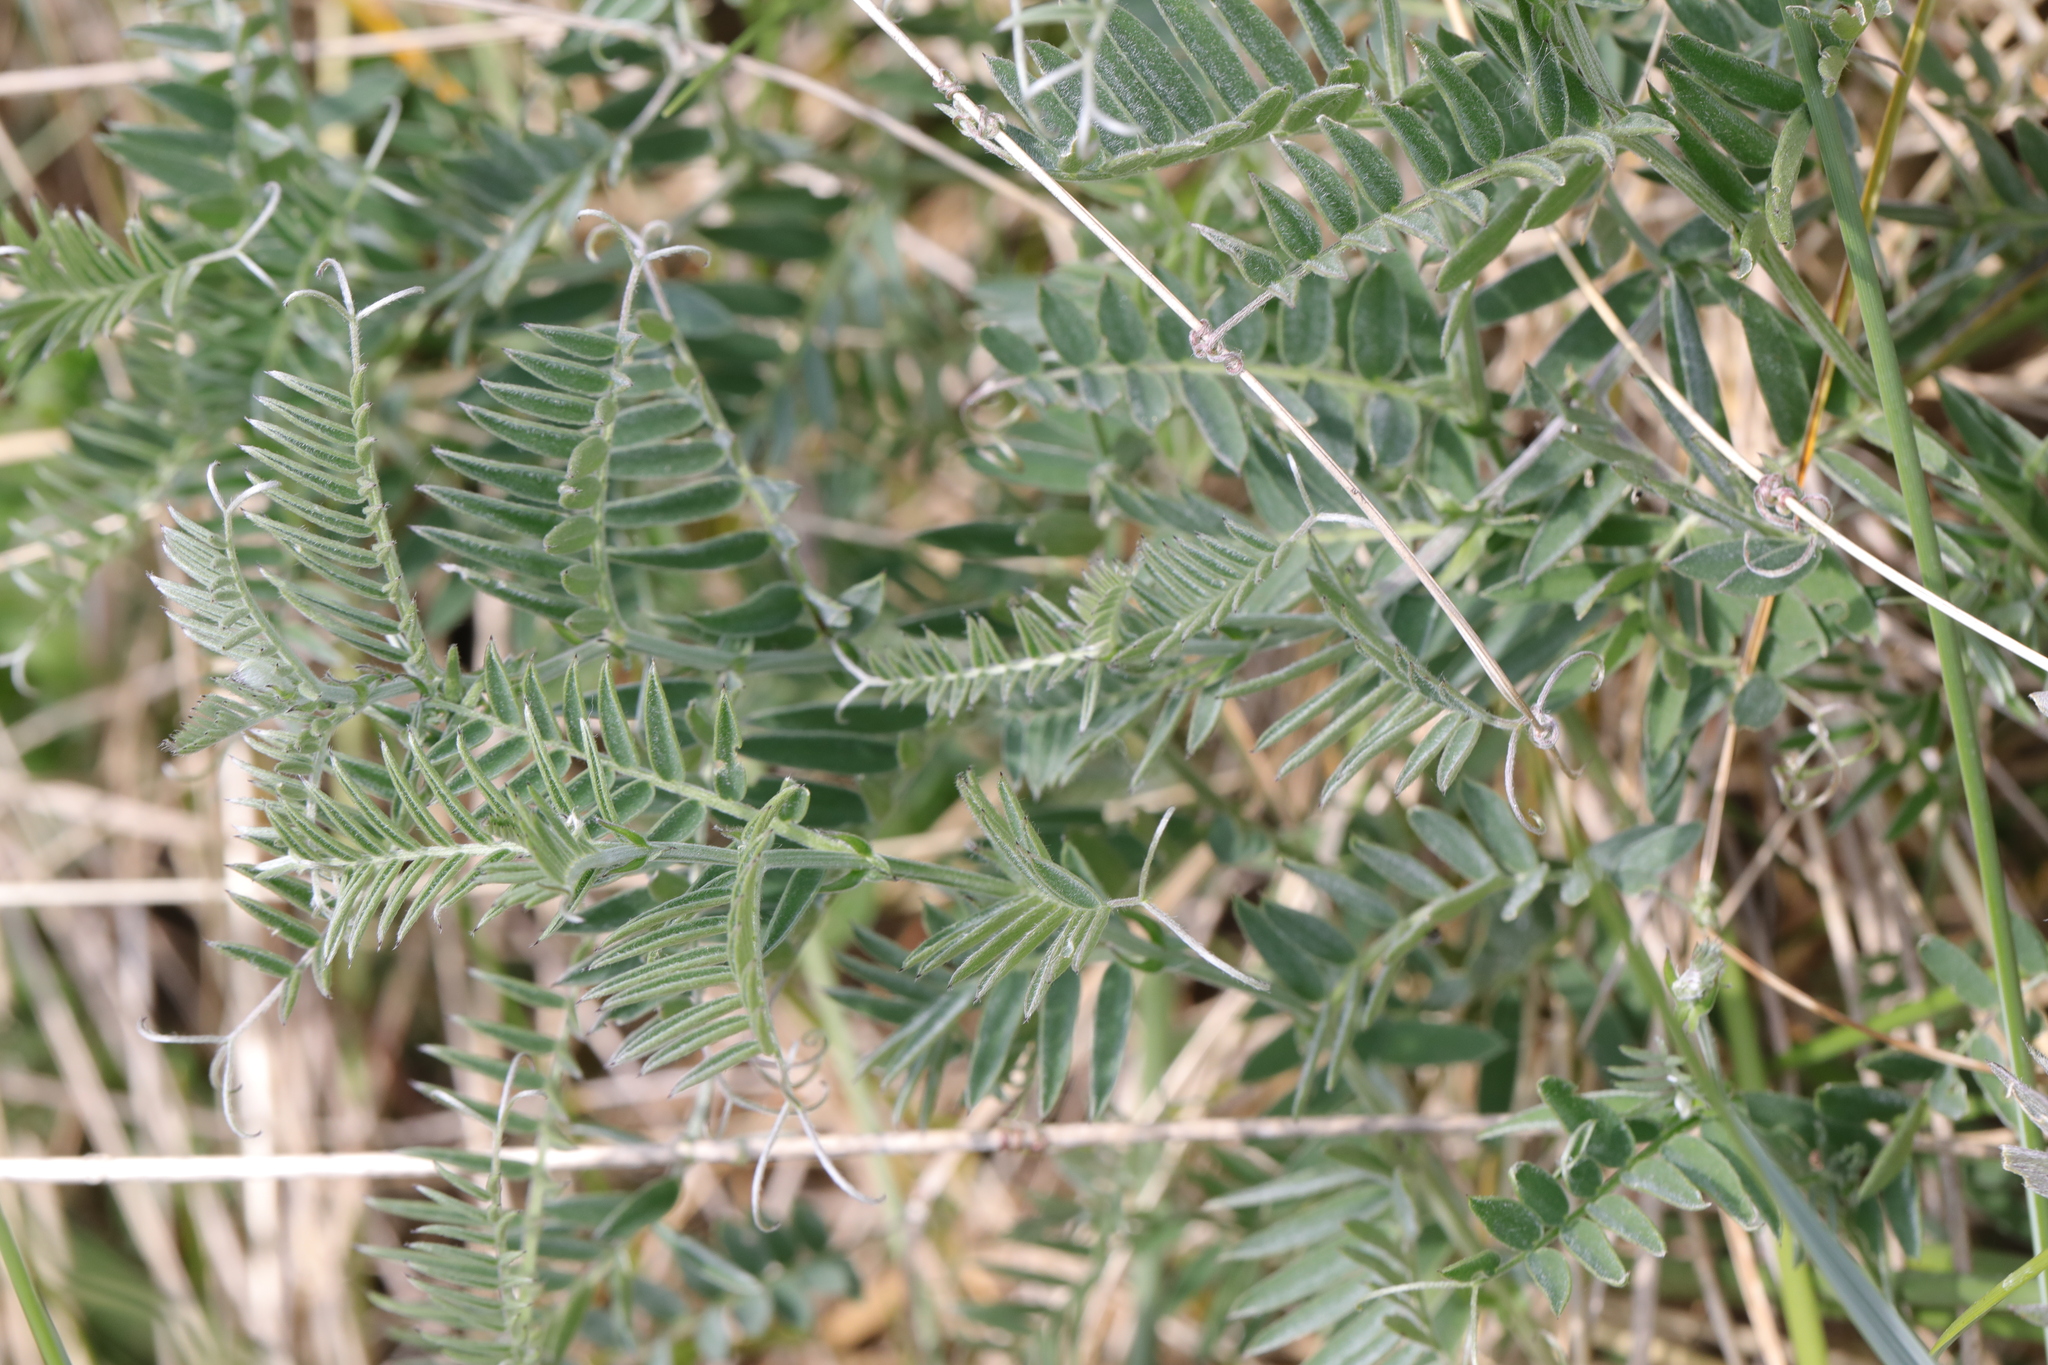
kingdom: Plantae
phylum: Tracheophyta
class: Magnoliopsida
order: Fabales
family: Fabaceae
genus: Vicia
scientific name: Vicia cracca
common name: Bird vetch
